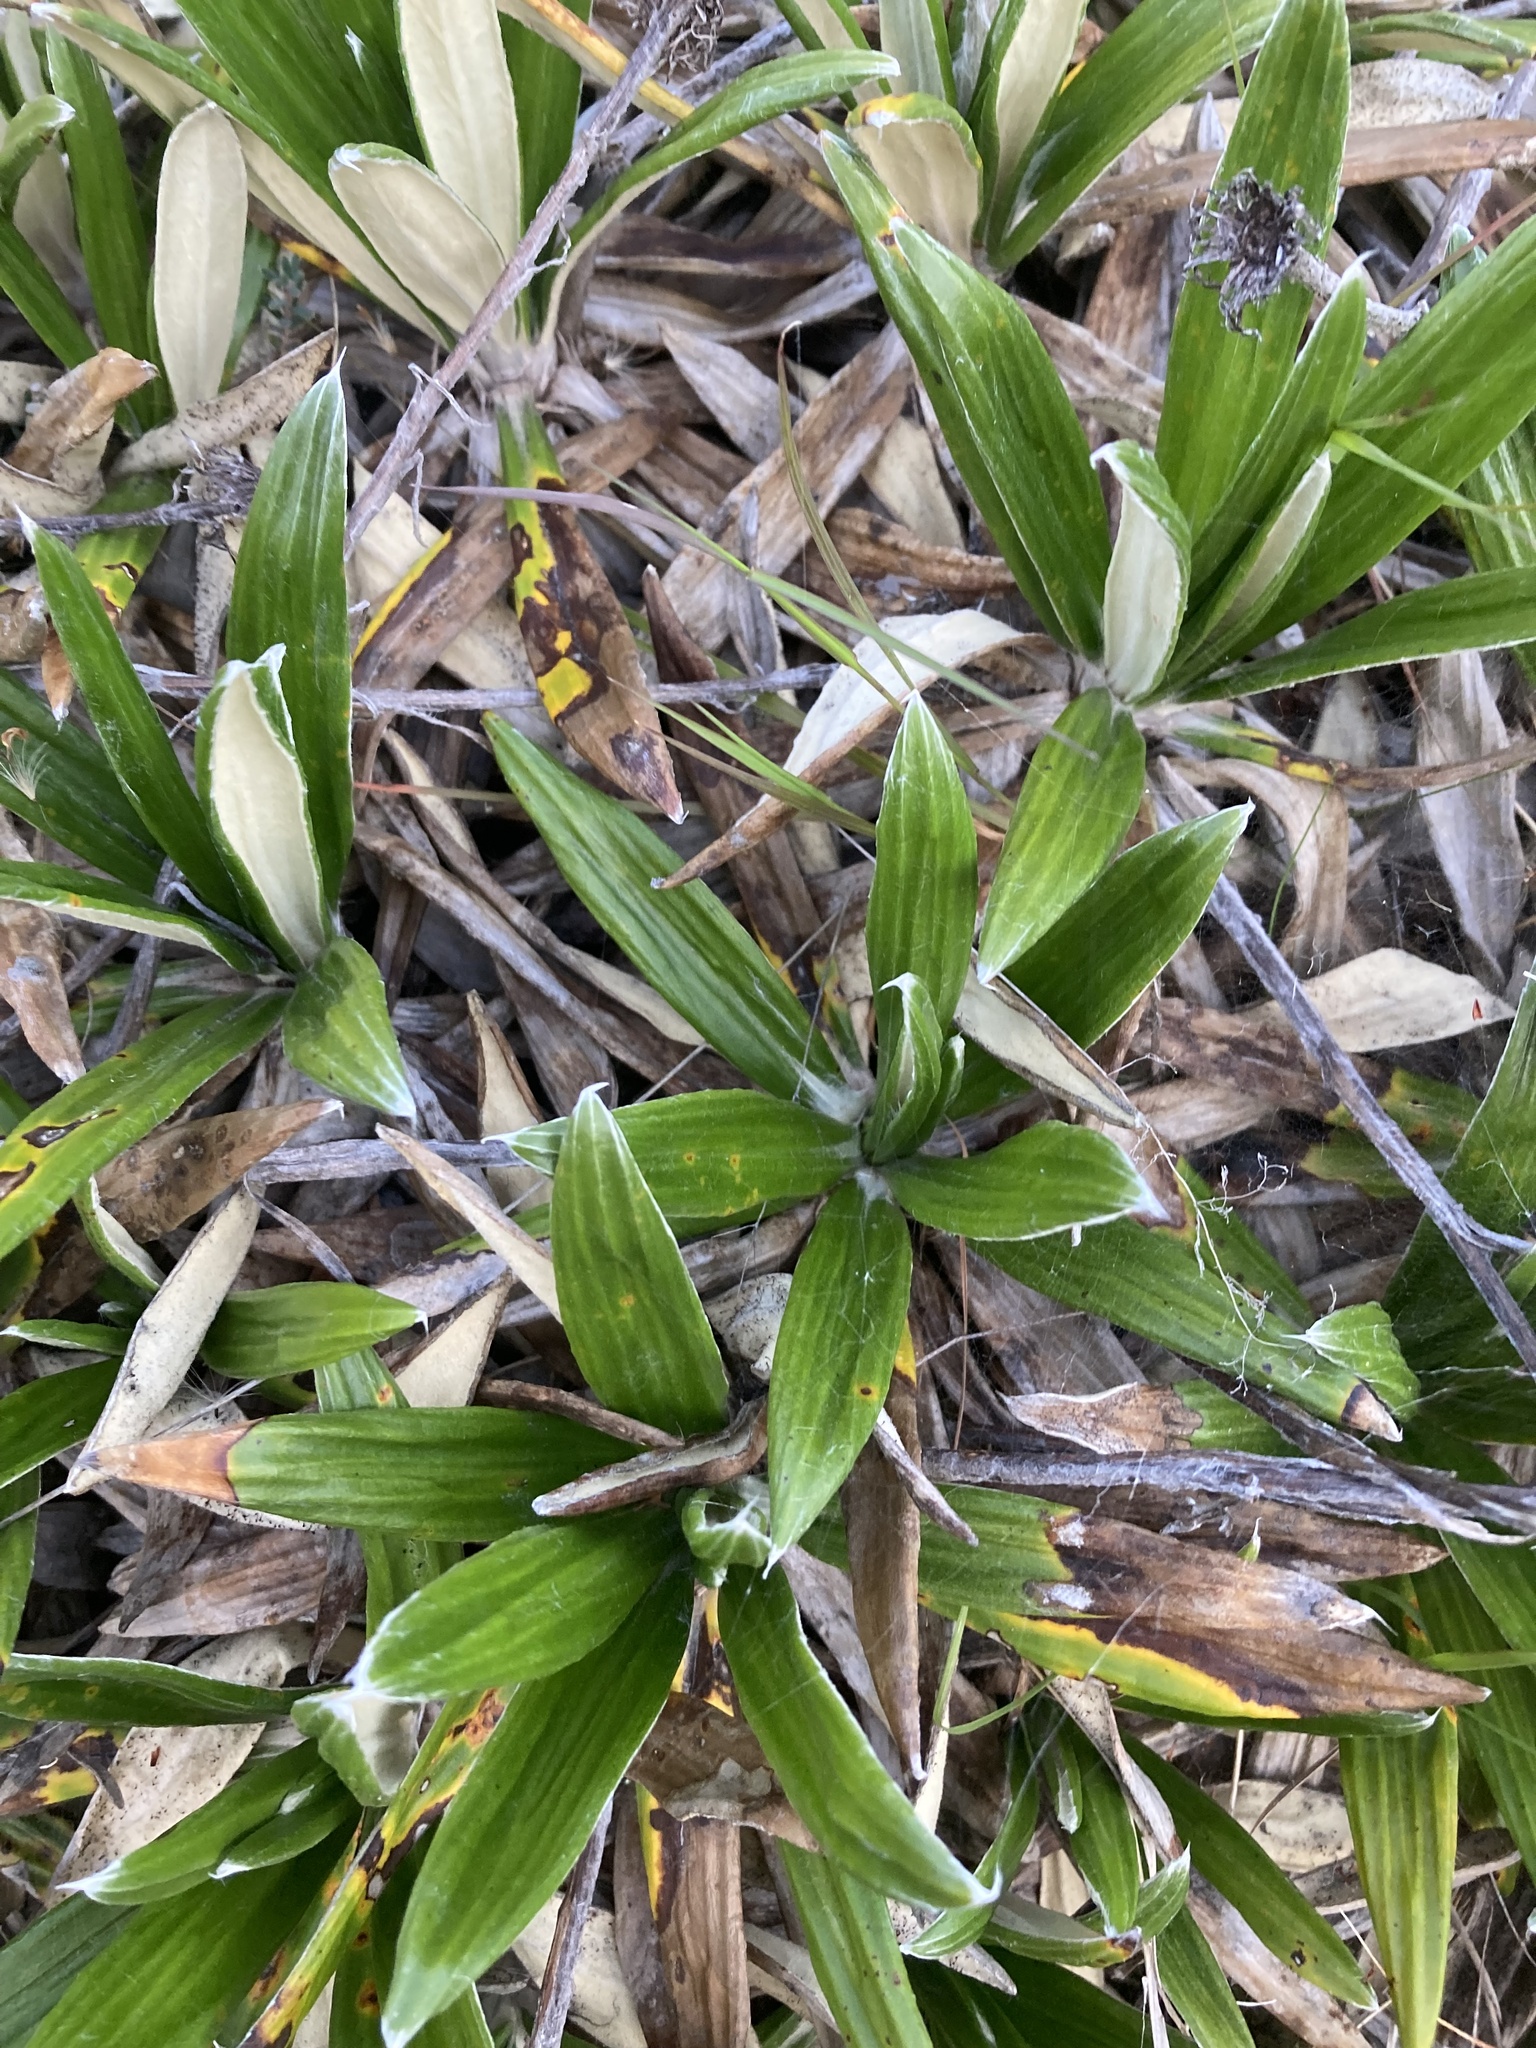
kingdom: Plantae
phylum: Tracheophyta
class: Magnoliopsida
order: Asterales
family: Asteraceae
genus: Celmisia
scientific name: Celmisia spectabilis
